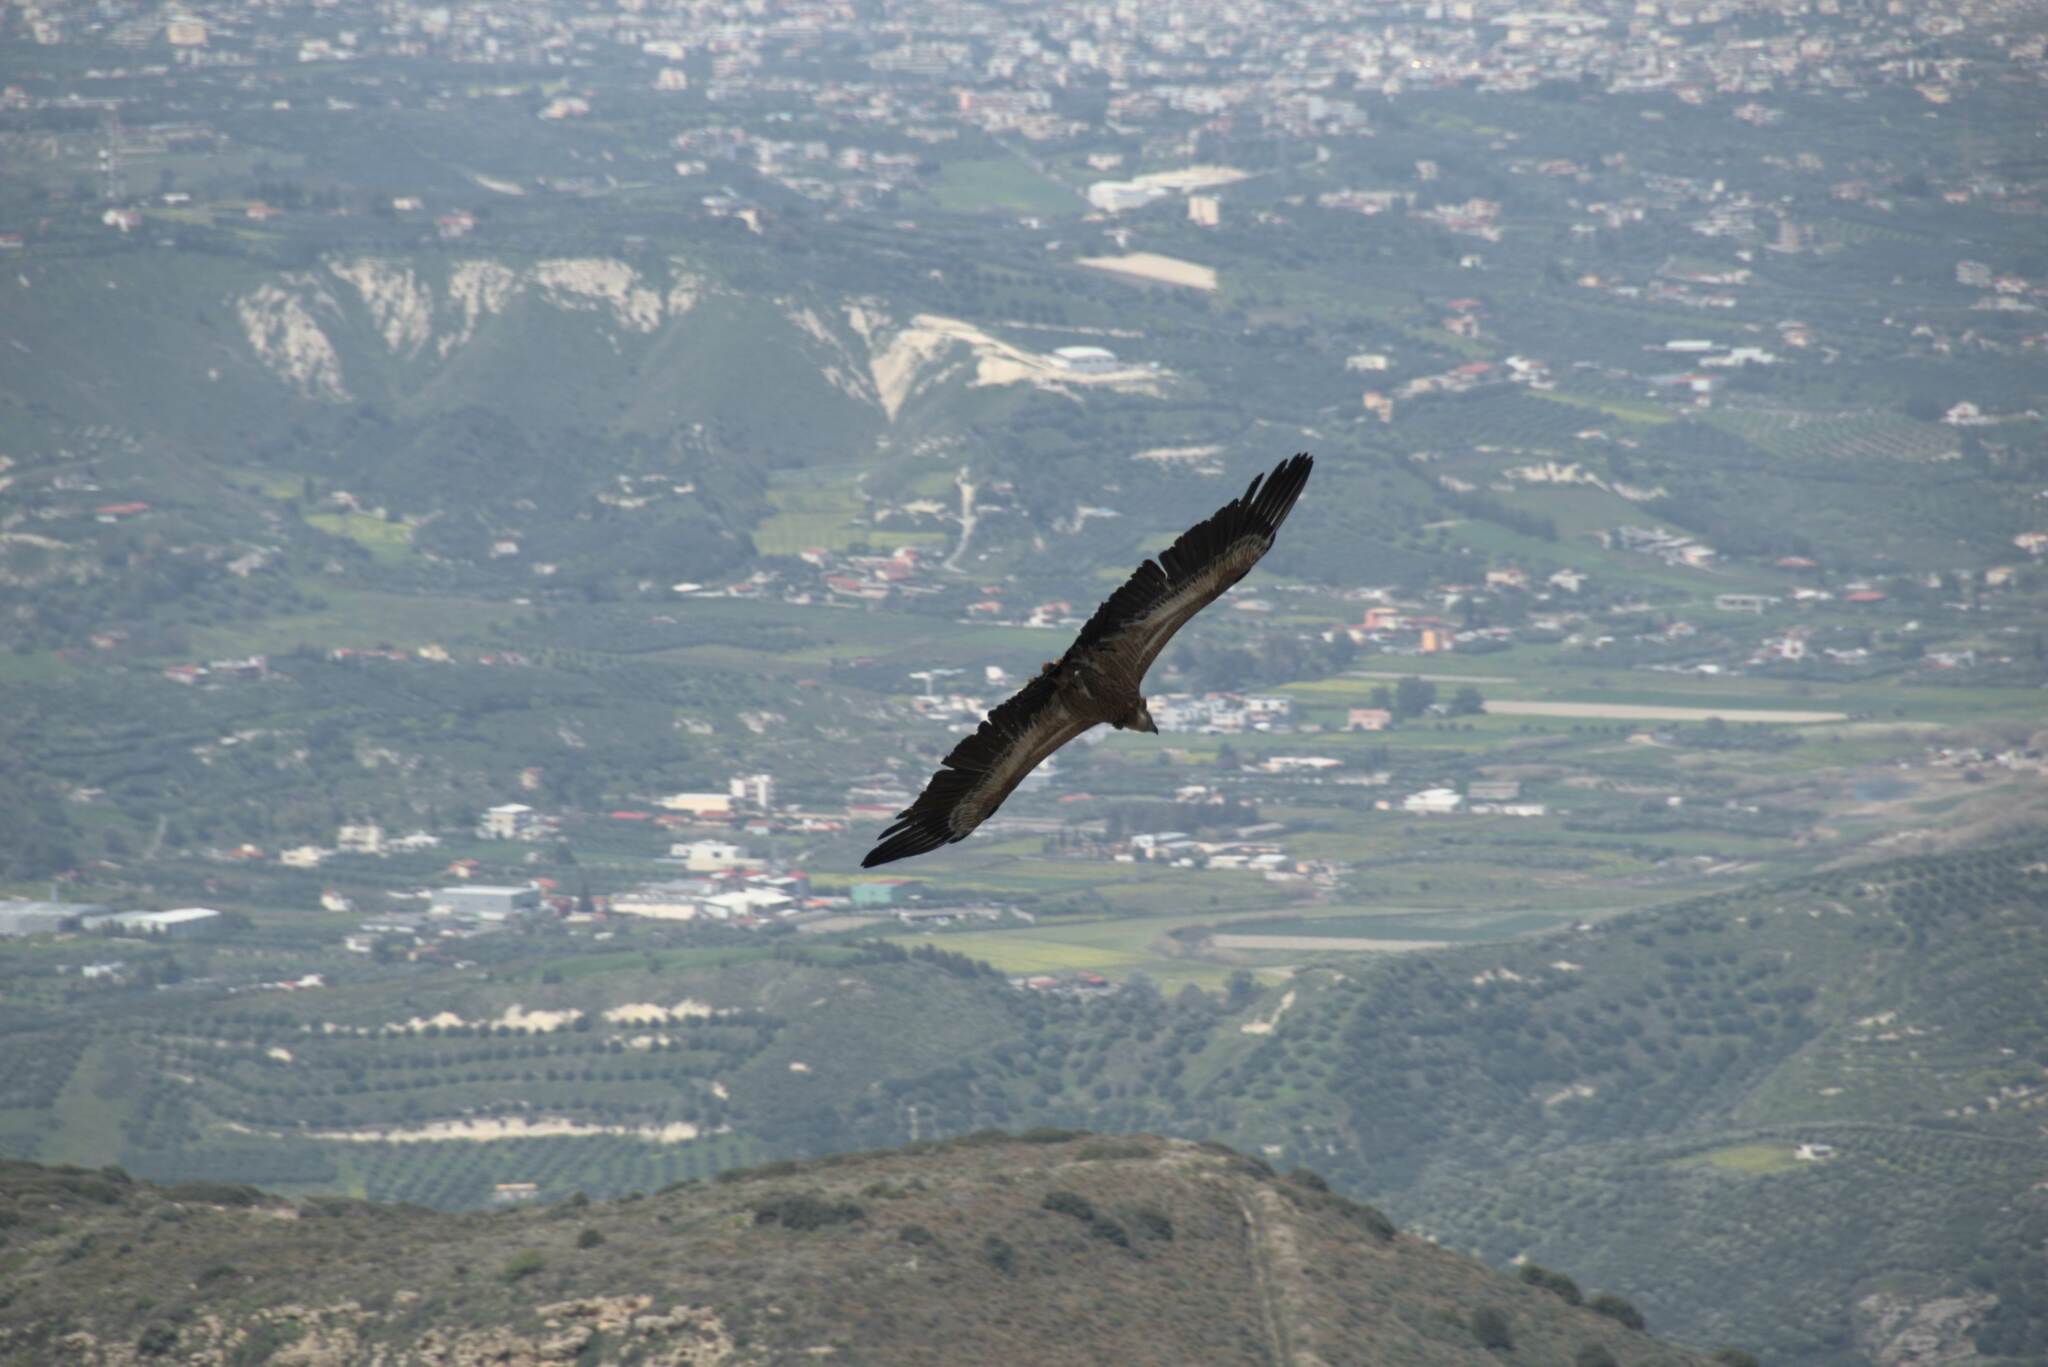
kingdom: Animalia
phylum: Chordata
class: Aves
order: Accipitriformes
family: Accipitridae
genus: Gyps
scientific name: Gyps fulvus
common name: Griffon vulture
